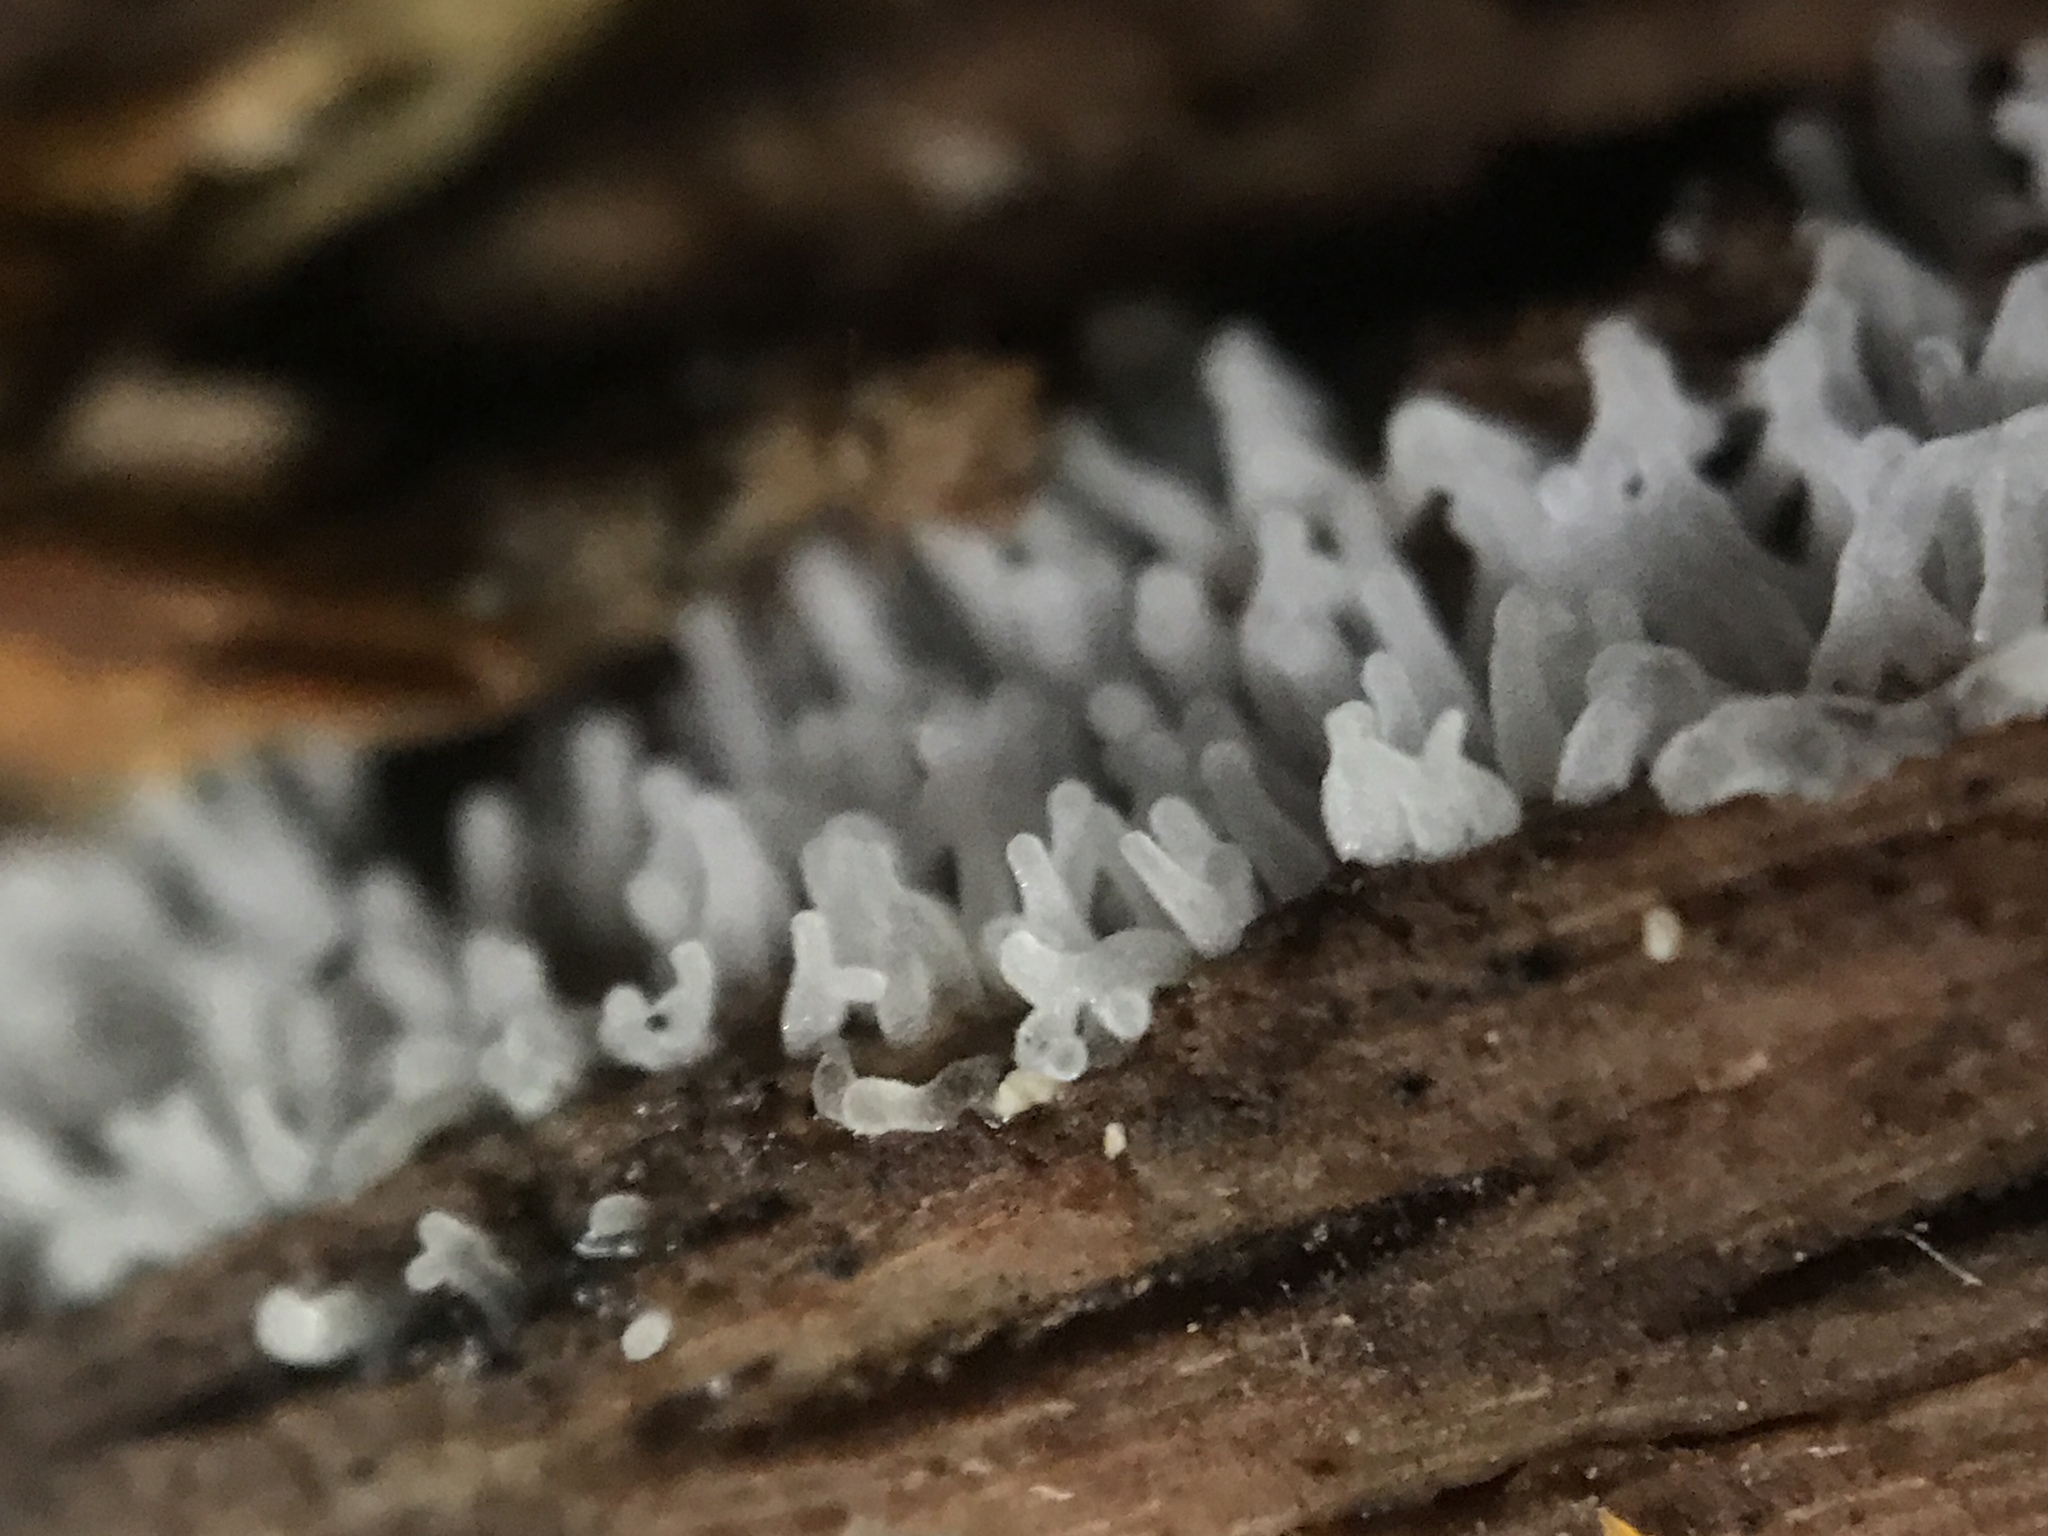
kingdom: Protozoa
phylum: Mycetozoa
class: Protosteliomycetes
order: Ceratiomyxales
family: Ceratiomyxaceae
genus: Ceratiomyxa
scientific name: Ceratiomyxa fruticulosa
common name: Honeycomb coral slime mold
